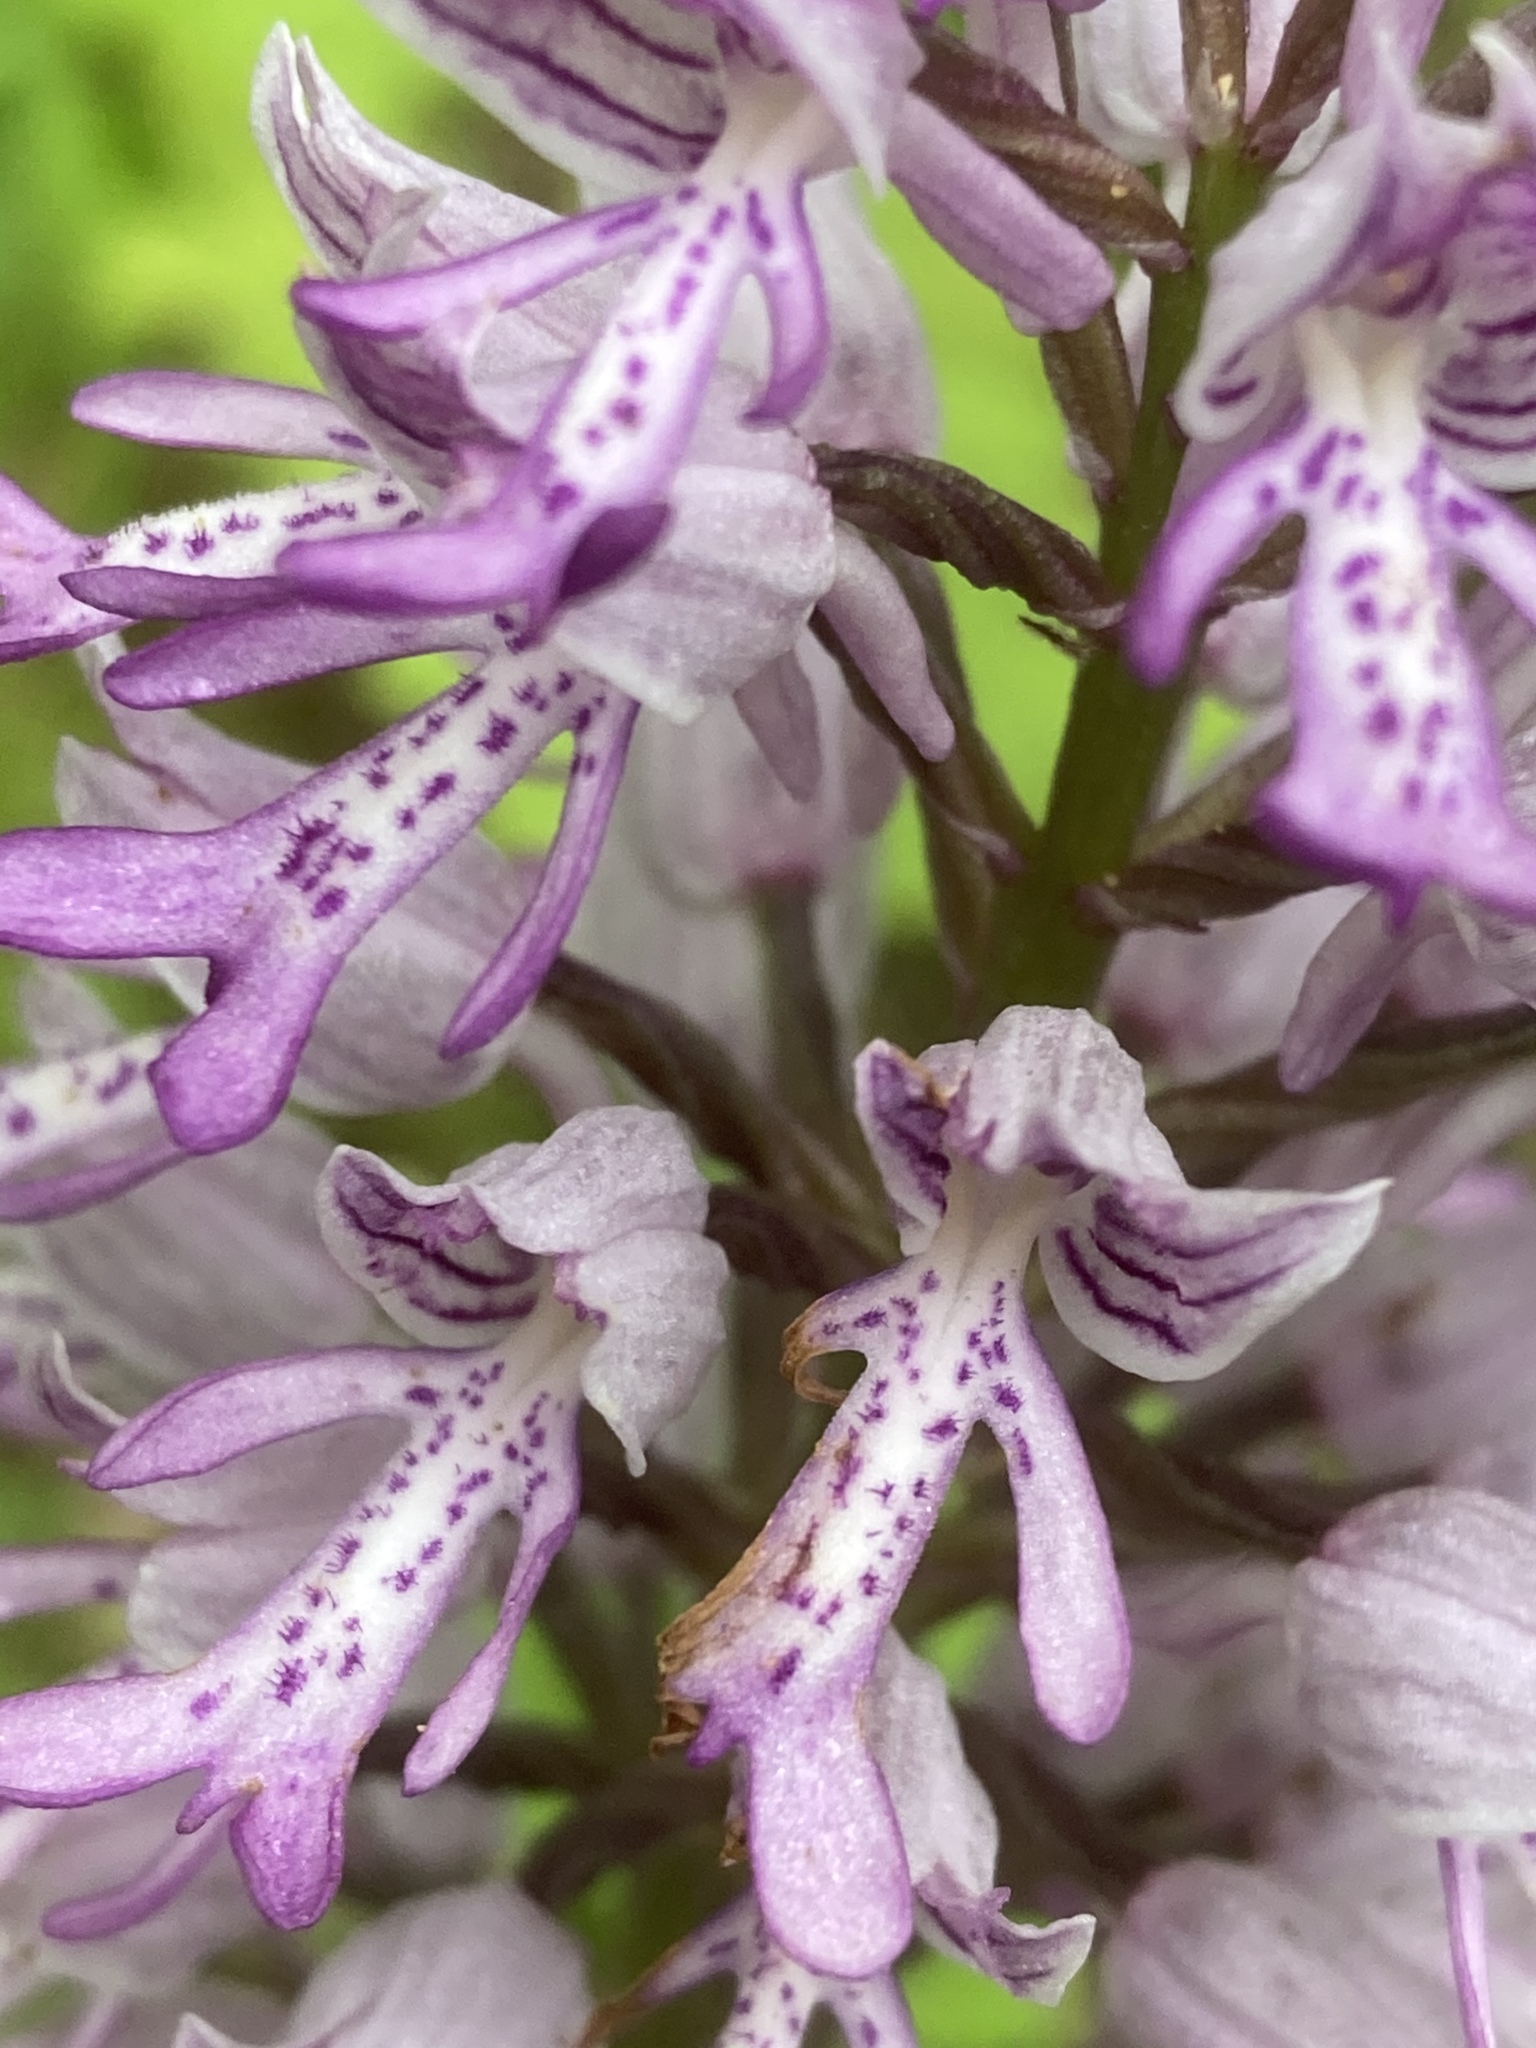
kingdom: Plantae
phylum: Tracheophyta
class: Liliopsida
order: Asparagales
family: Orchidaceae
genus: Orchis
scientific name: Orchis militaris
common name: Military orchid
